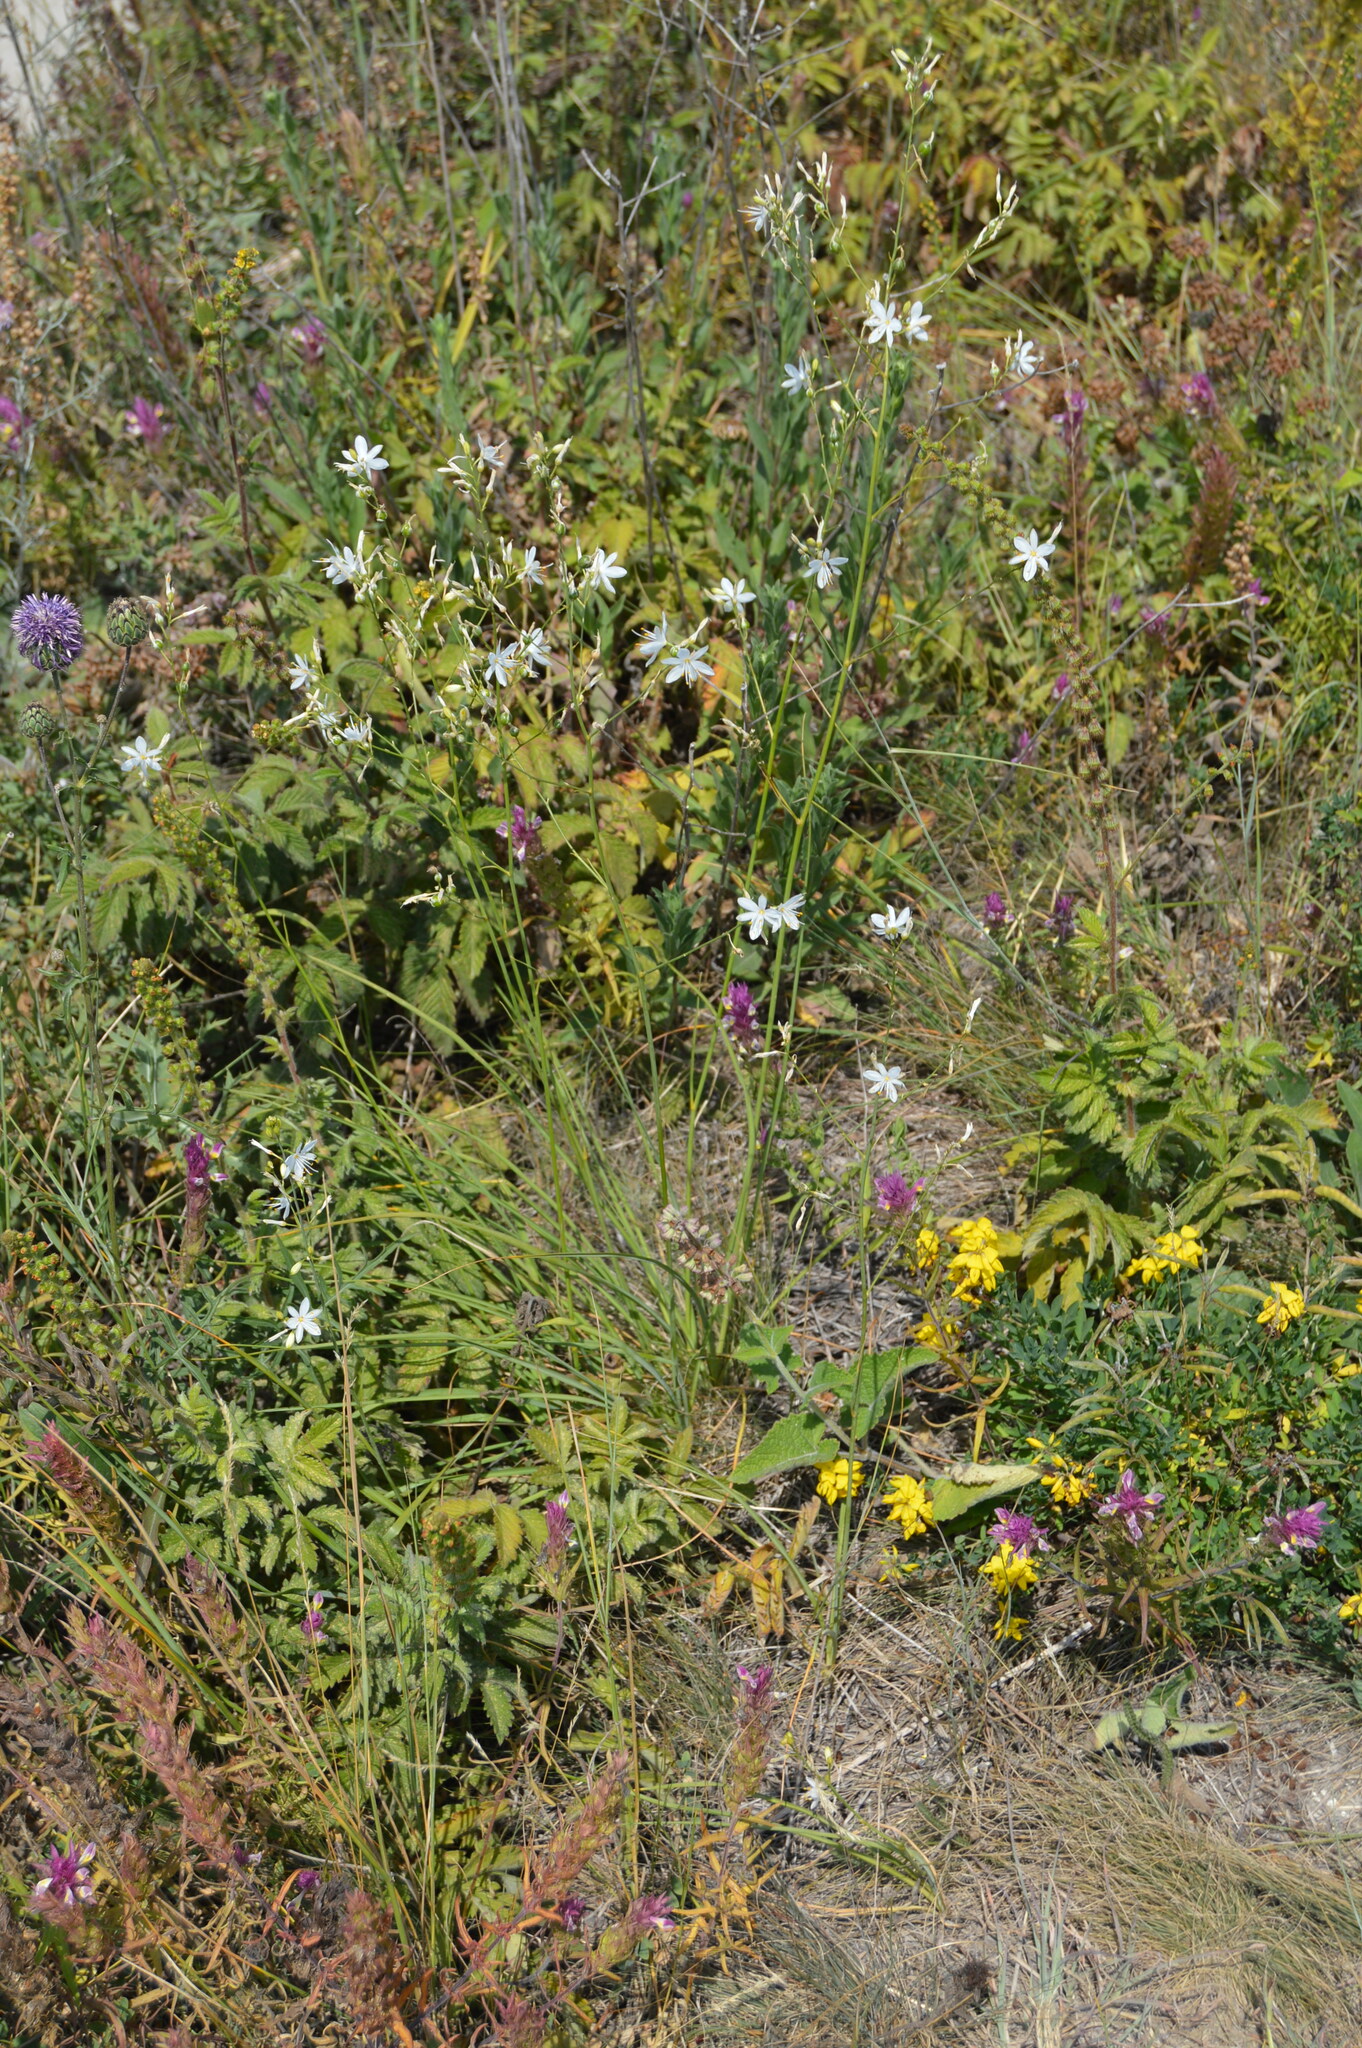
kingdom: Plantae
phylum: Tracheophyta
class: Liliopsida
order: Asparagales
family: Asparagaceae
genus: Anthericum
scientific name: Anthericum ramosum
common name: Branched st. bernard's-lily
